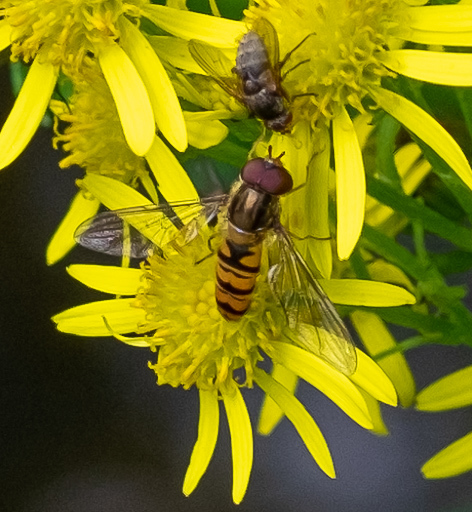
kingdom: Animalia
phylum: Arthropoda
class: Insecta
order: Diptera
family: Syrphidae
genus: Episyrphus
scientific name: Episyrphus balteatus
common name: Marmalade hoverfly
